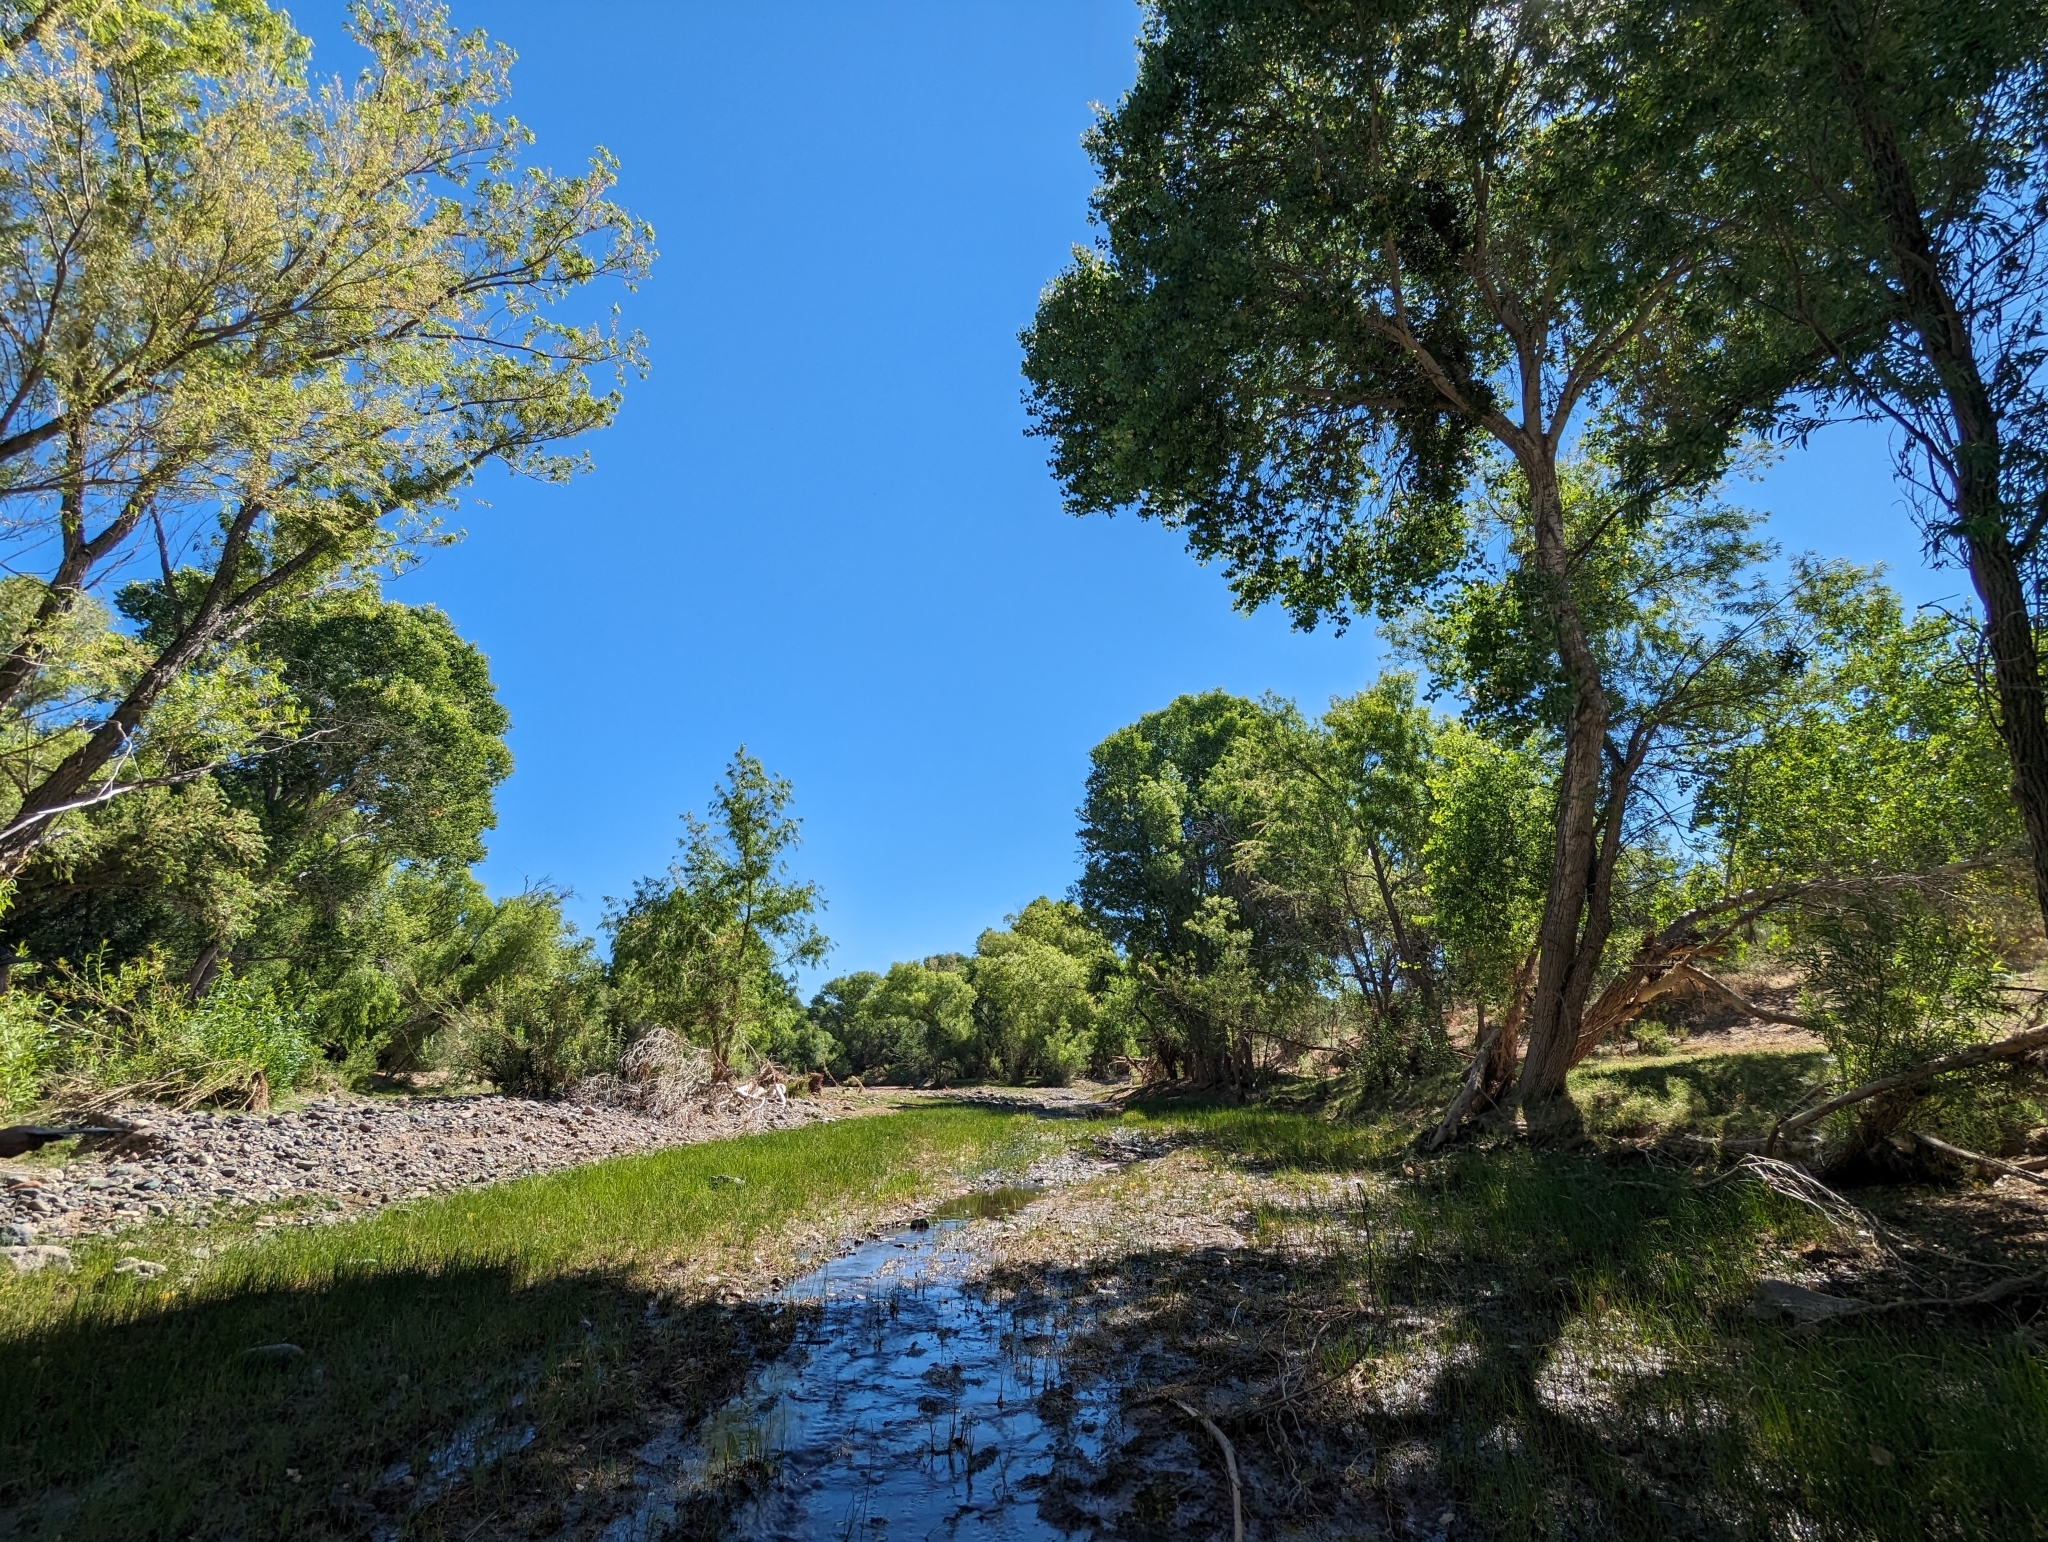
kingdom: Plantae
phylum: Tracheophyta
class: Magnoliopsida
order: Malpighiales
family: Salicaceae
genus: Populus
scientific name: Populus fremontii
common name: Fremont's cottonwood
